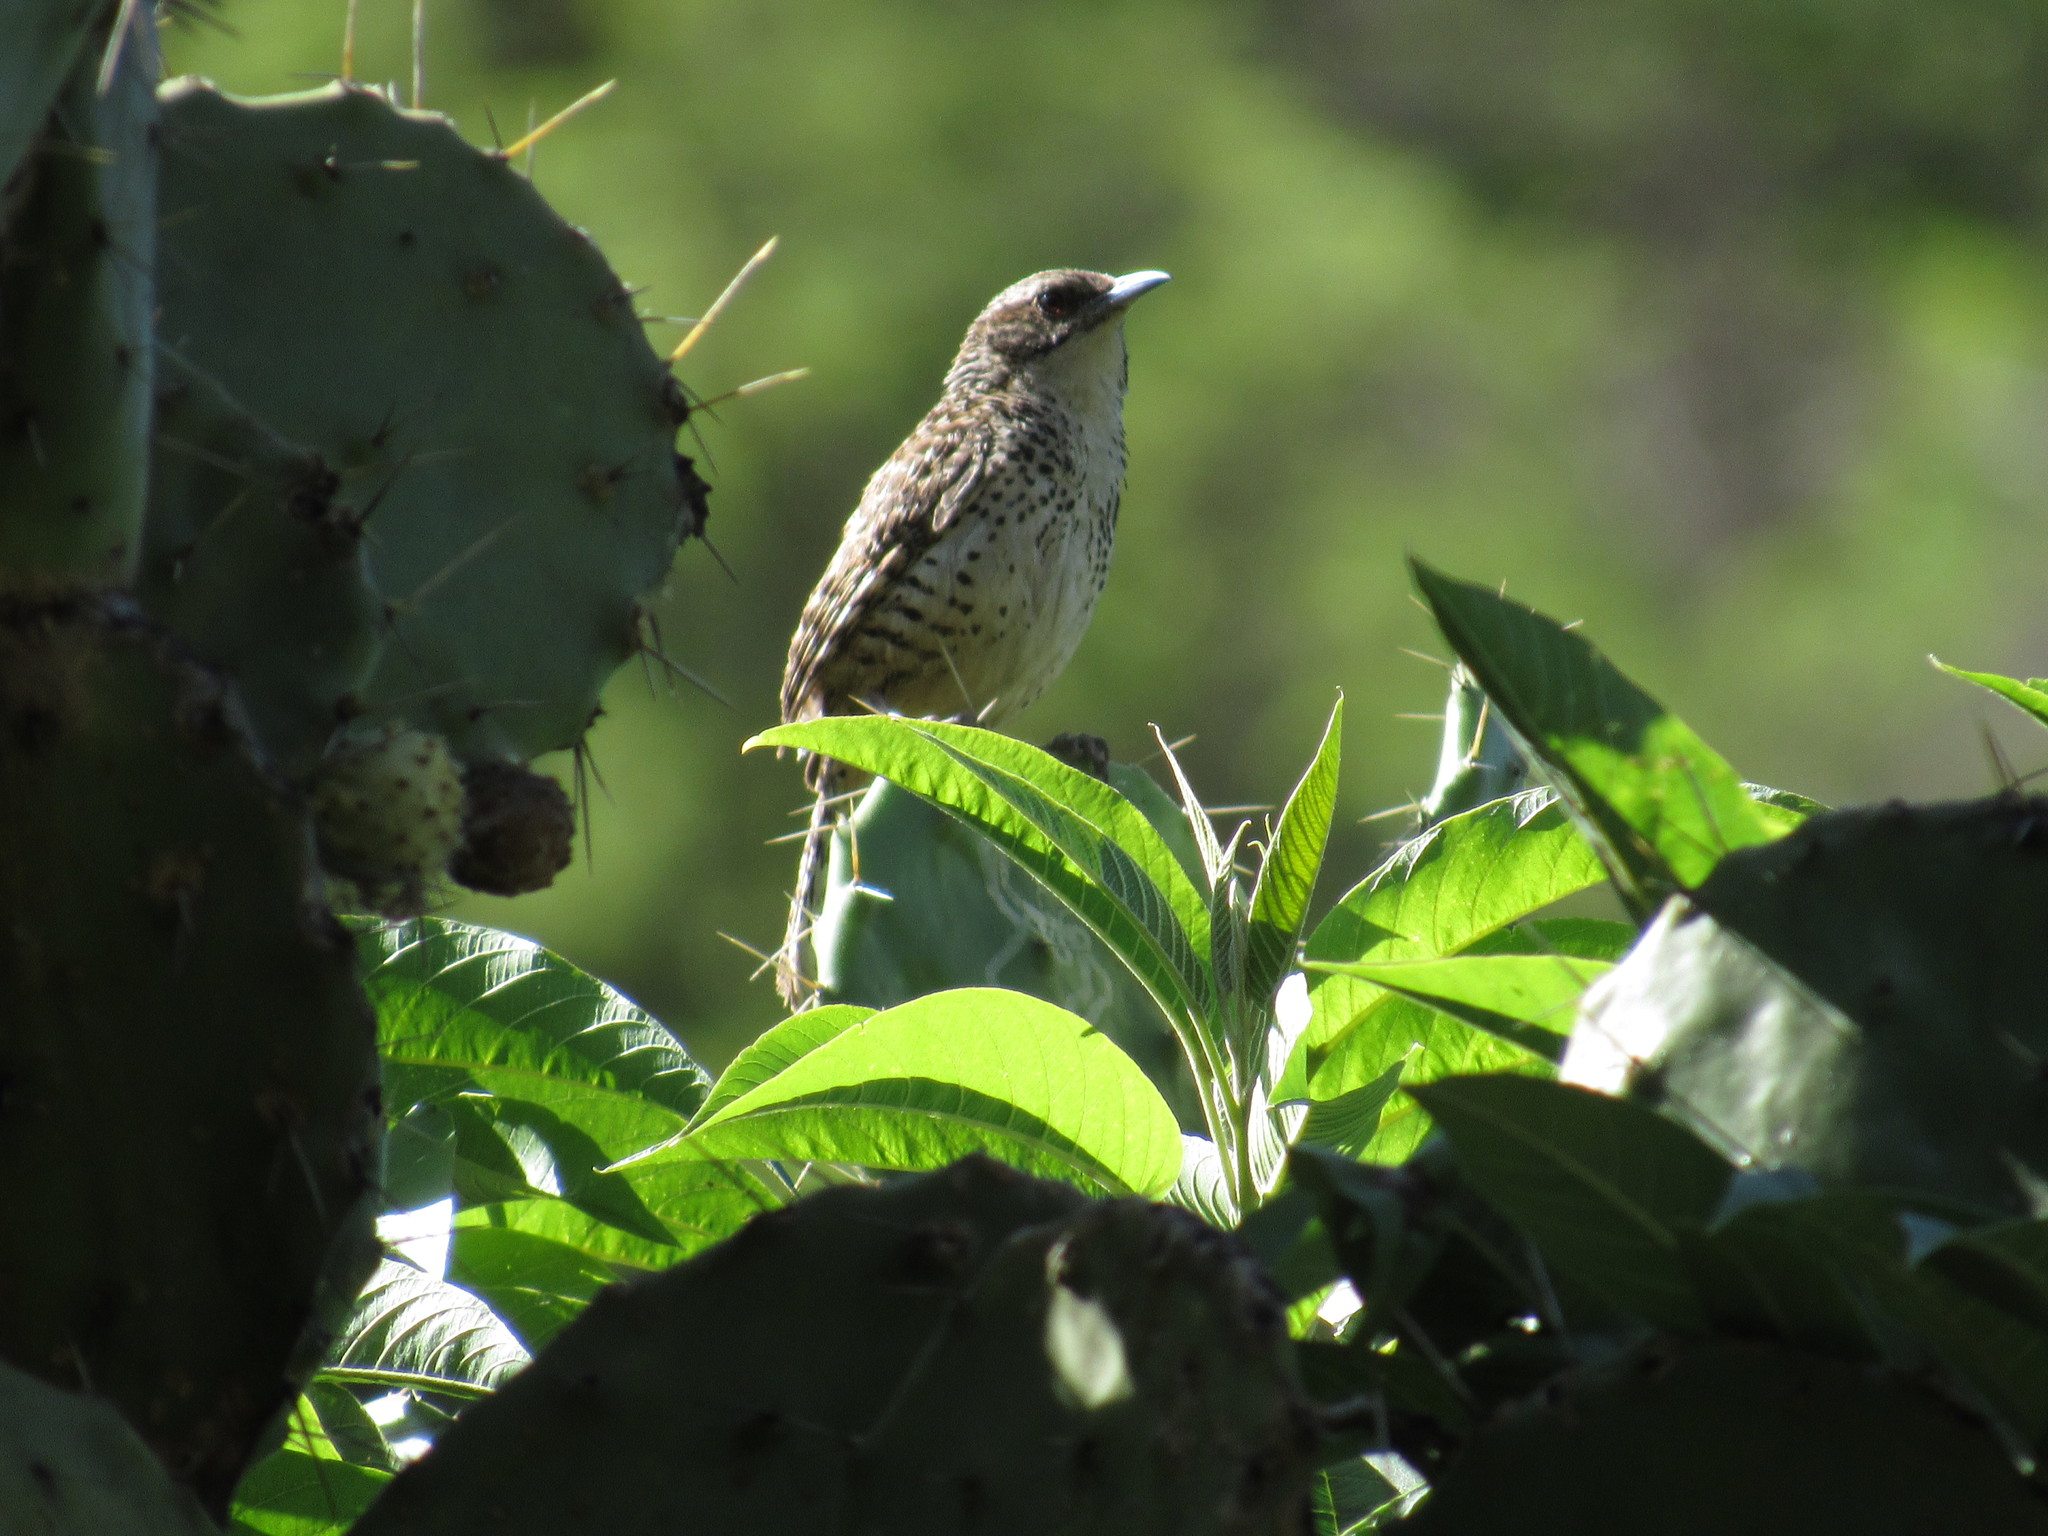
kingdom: Animalia
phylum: Chordata
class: Aves
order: Passeriformes
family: Troglodytidae
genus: Campylorhynchus
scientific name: Campylorhynchus gularis
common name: Spotted wren
